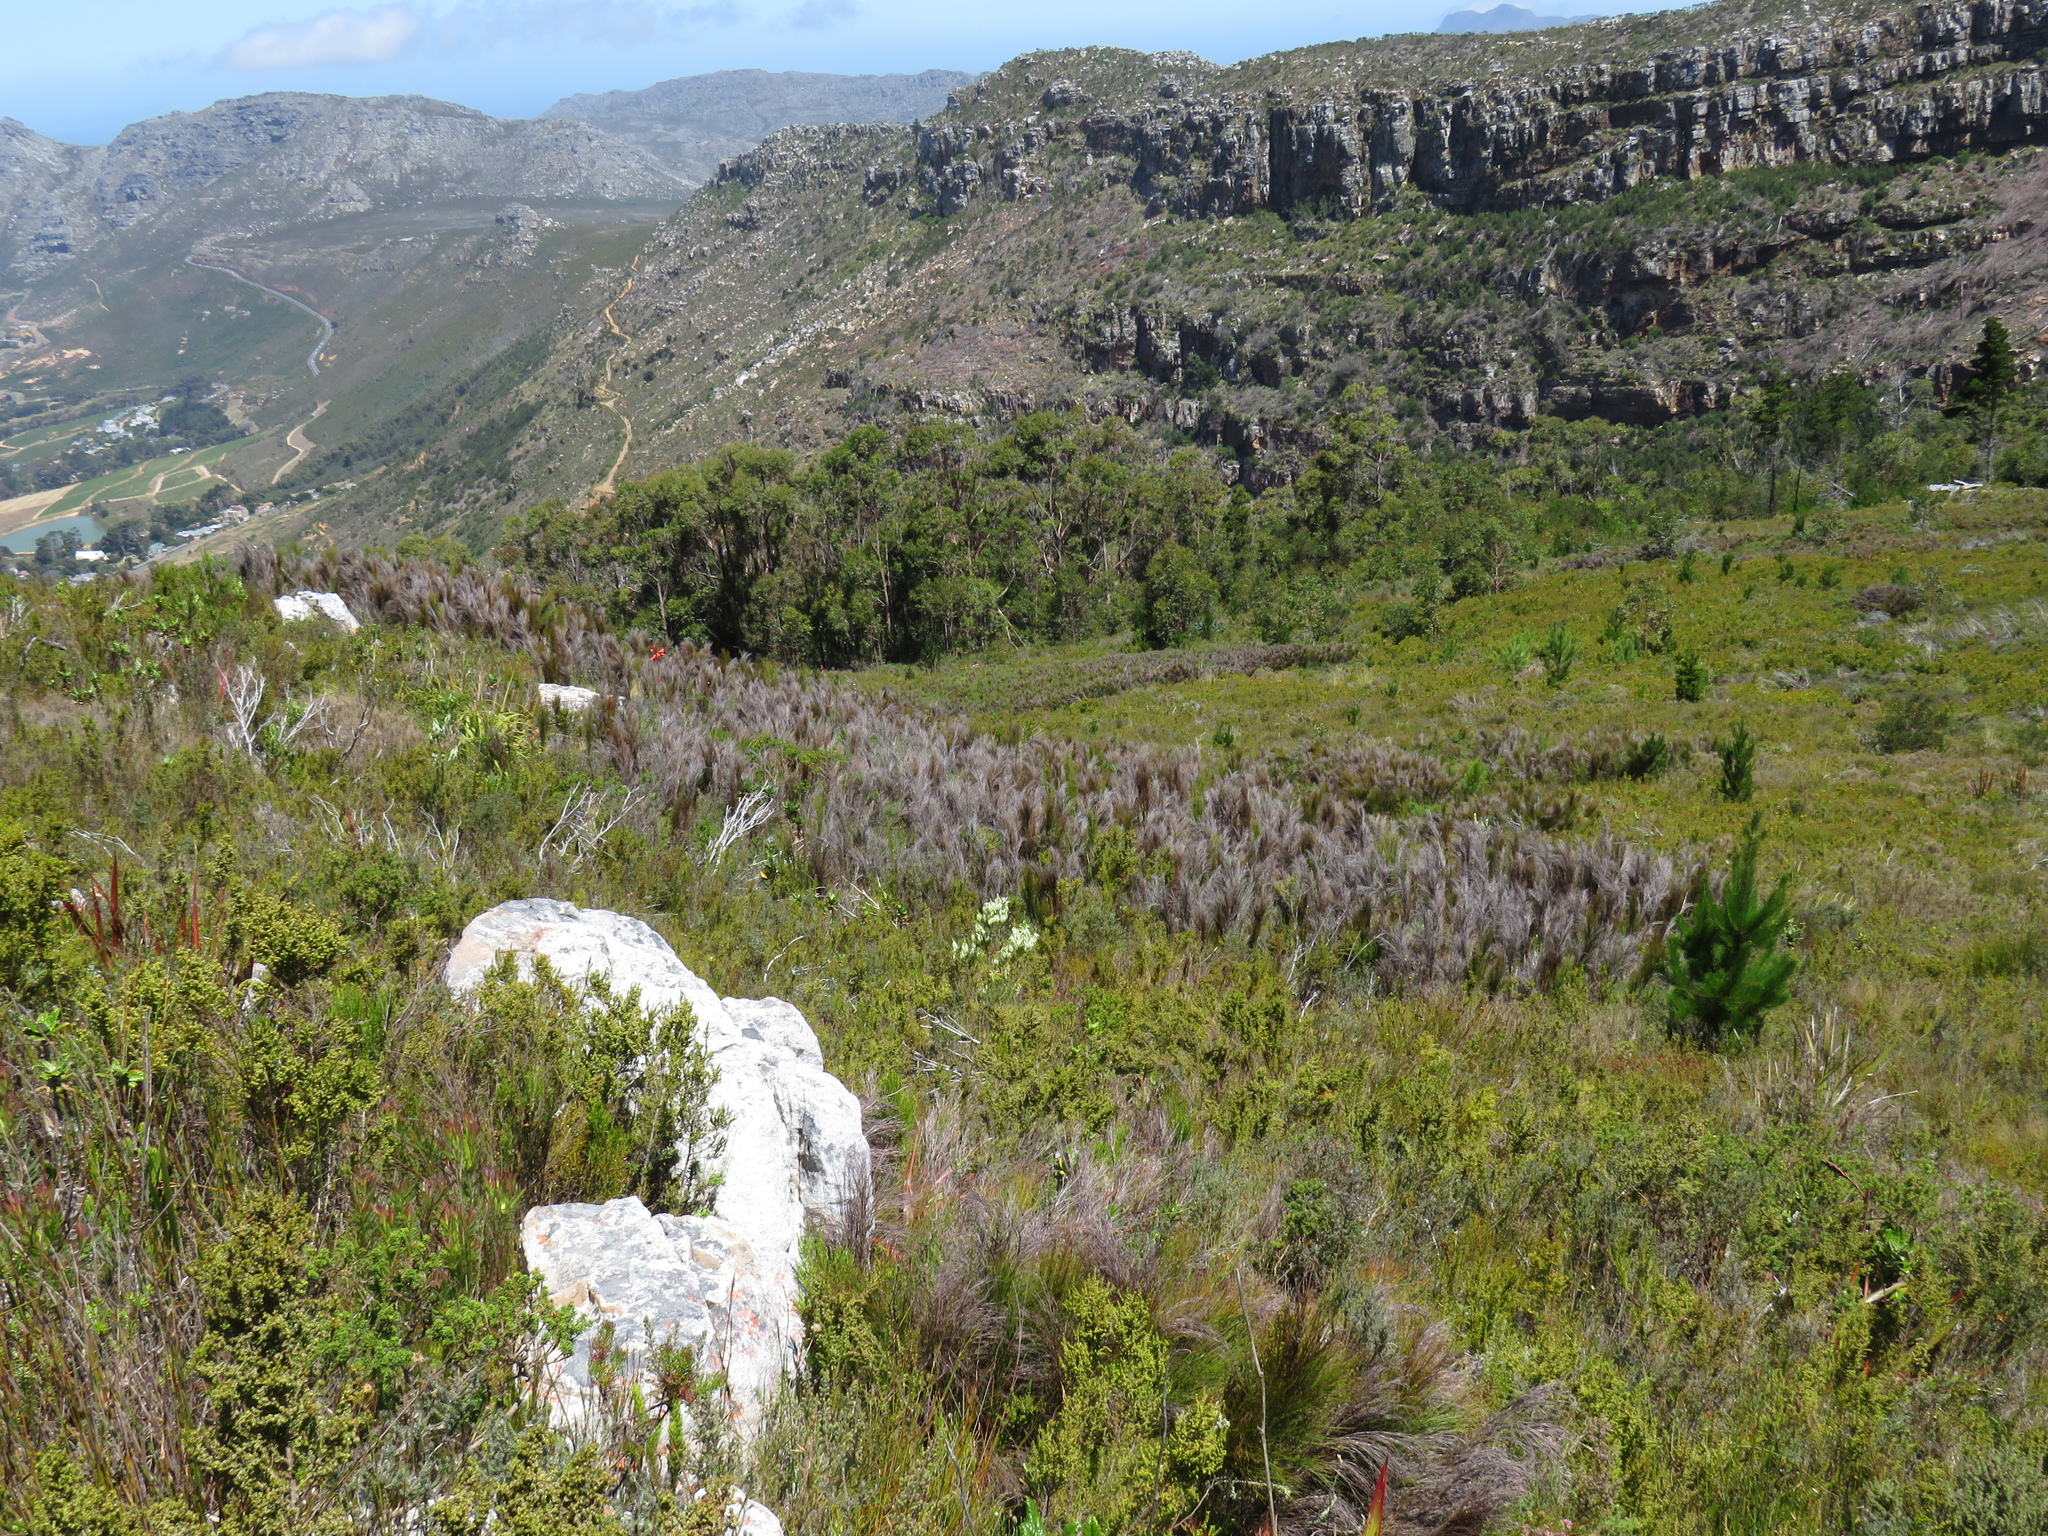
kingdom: Plantae
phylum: Tracheophyta
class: Liliopsida
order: Poales
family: Restionaceae
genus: Cannomois
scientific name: Cannomois virgata
